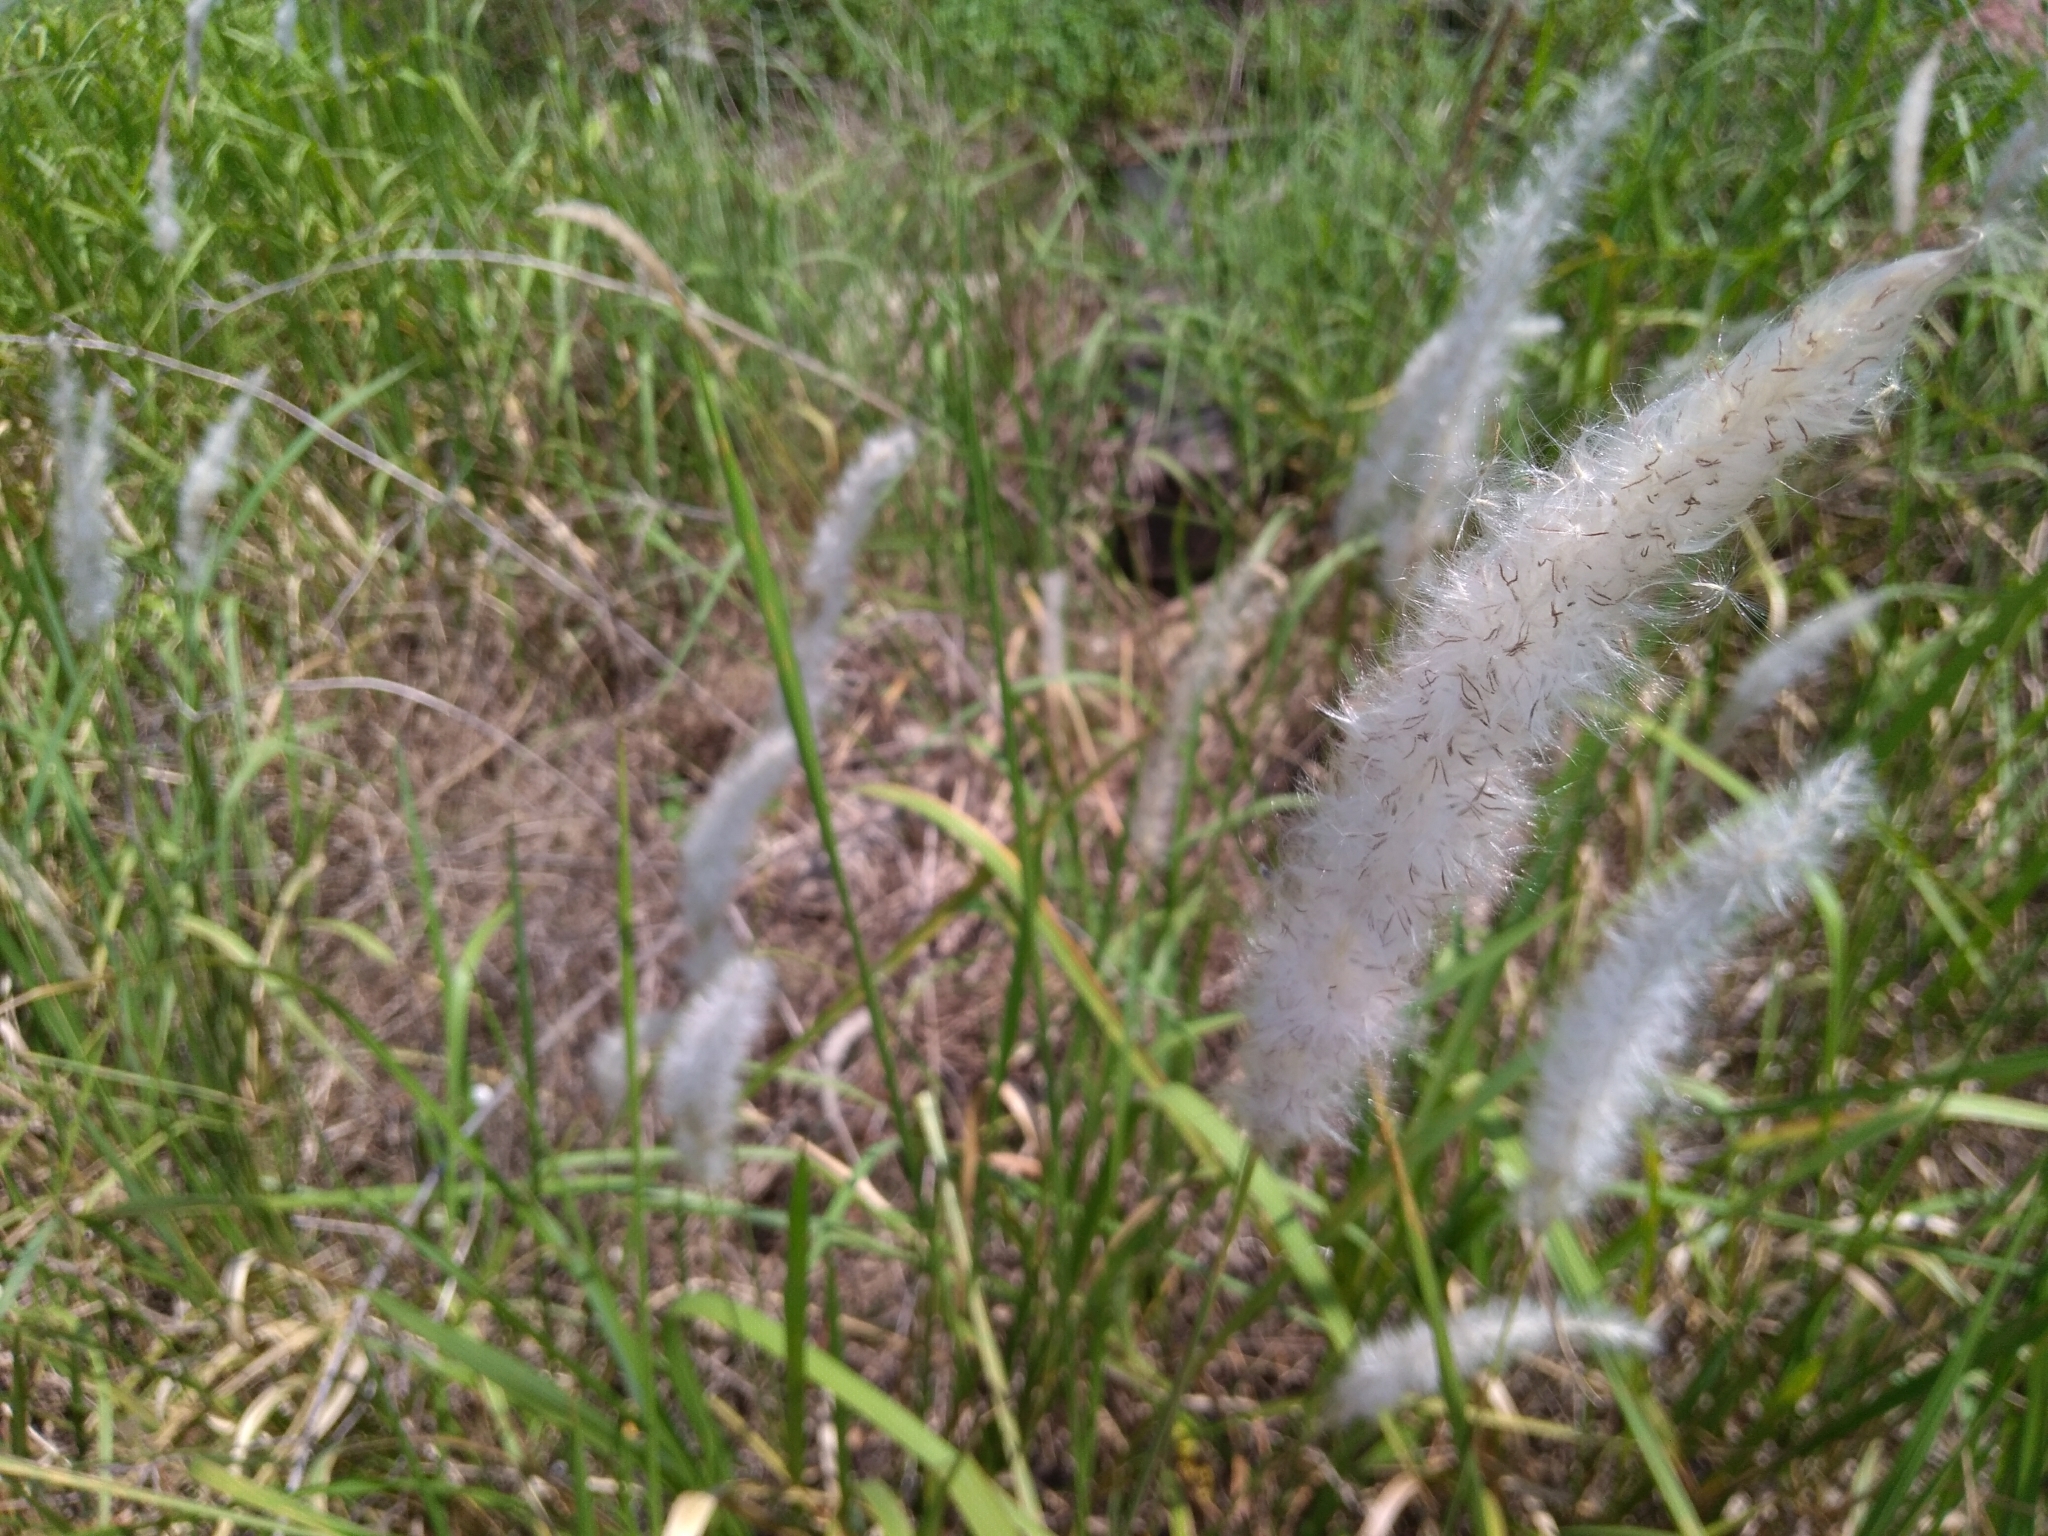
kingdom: Plantae
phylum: Tracheophyta
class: Liliopsida
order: Poales
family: Poaceae
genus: Imperata
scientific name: Imperata cylindrica
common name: Cogongrass
